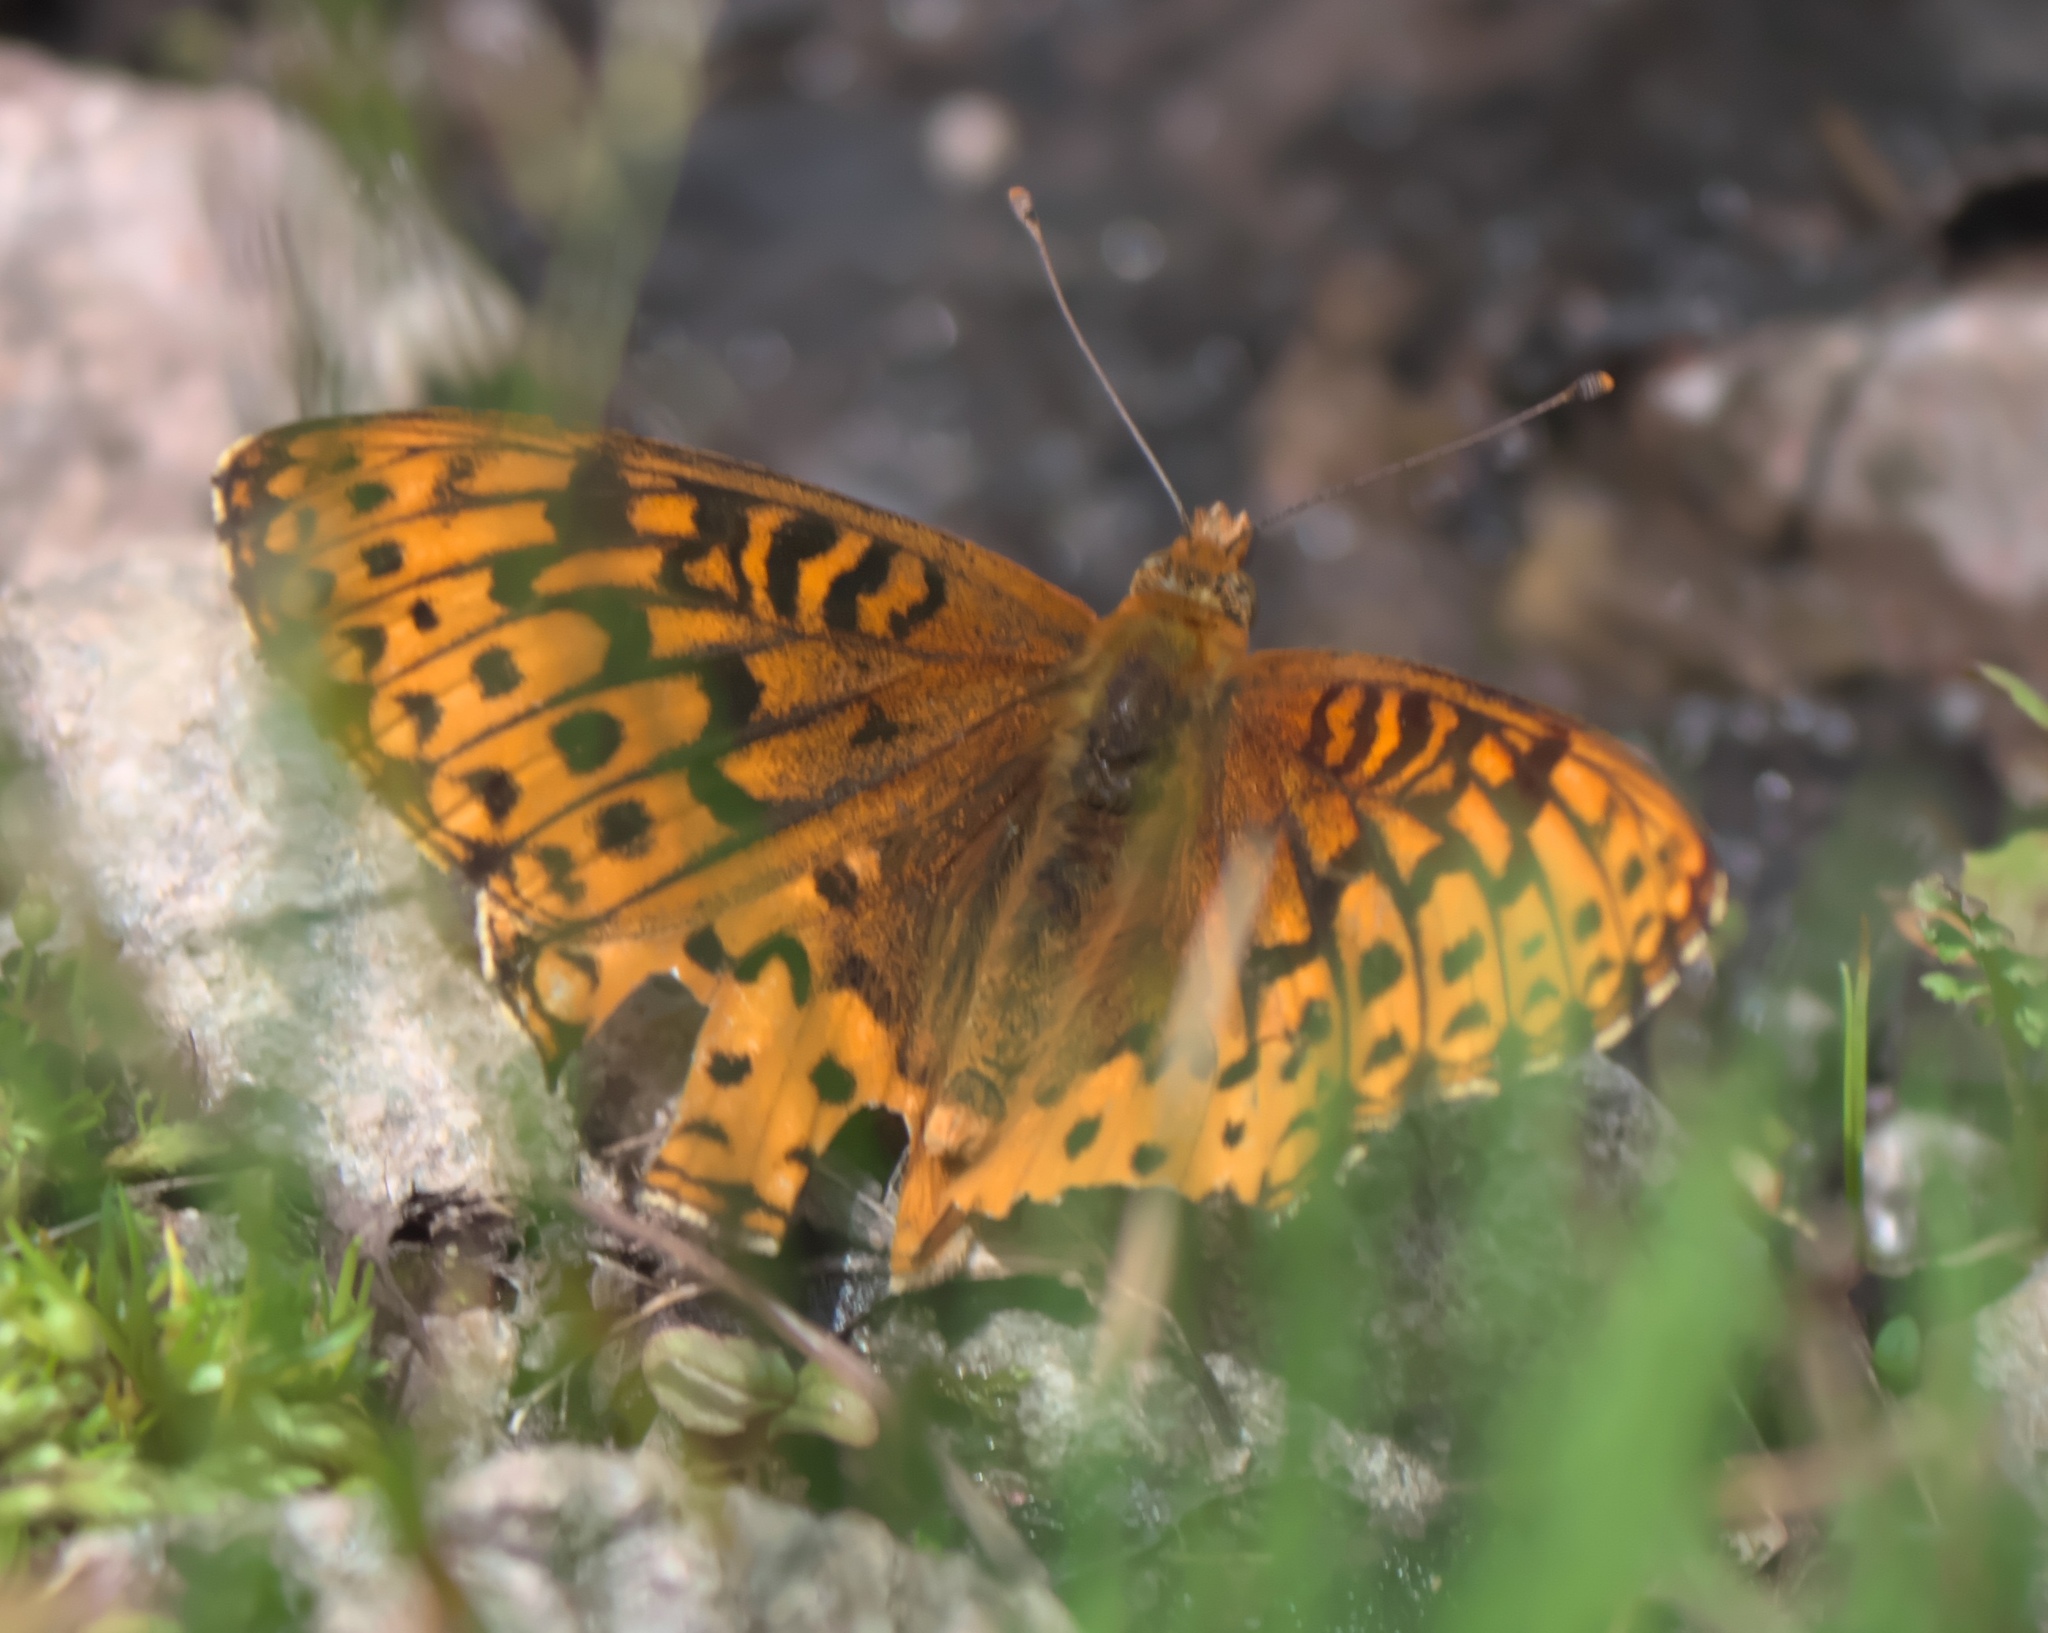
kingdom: Animalia
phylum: Arthropoda
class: Insecta
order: Lepidoptera
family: Nymphalidae
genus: Speyeria
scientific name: Speyeria atlantis
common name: Atlantis fritillary
